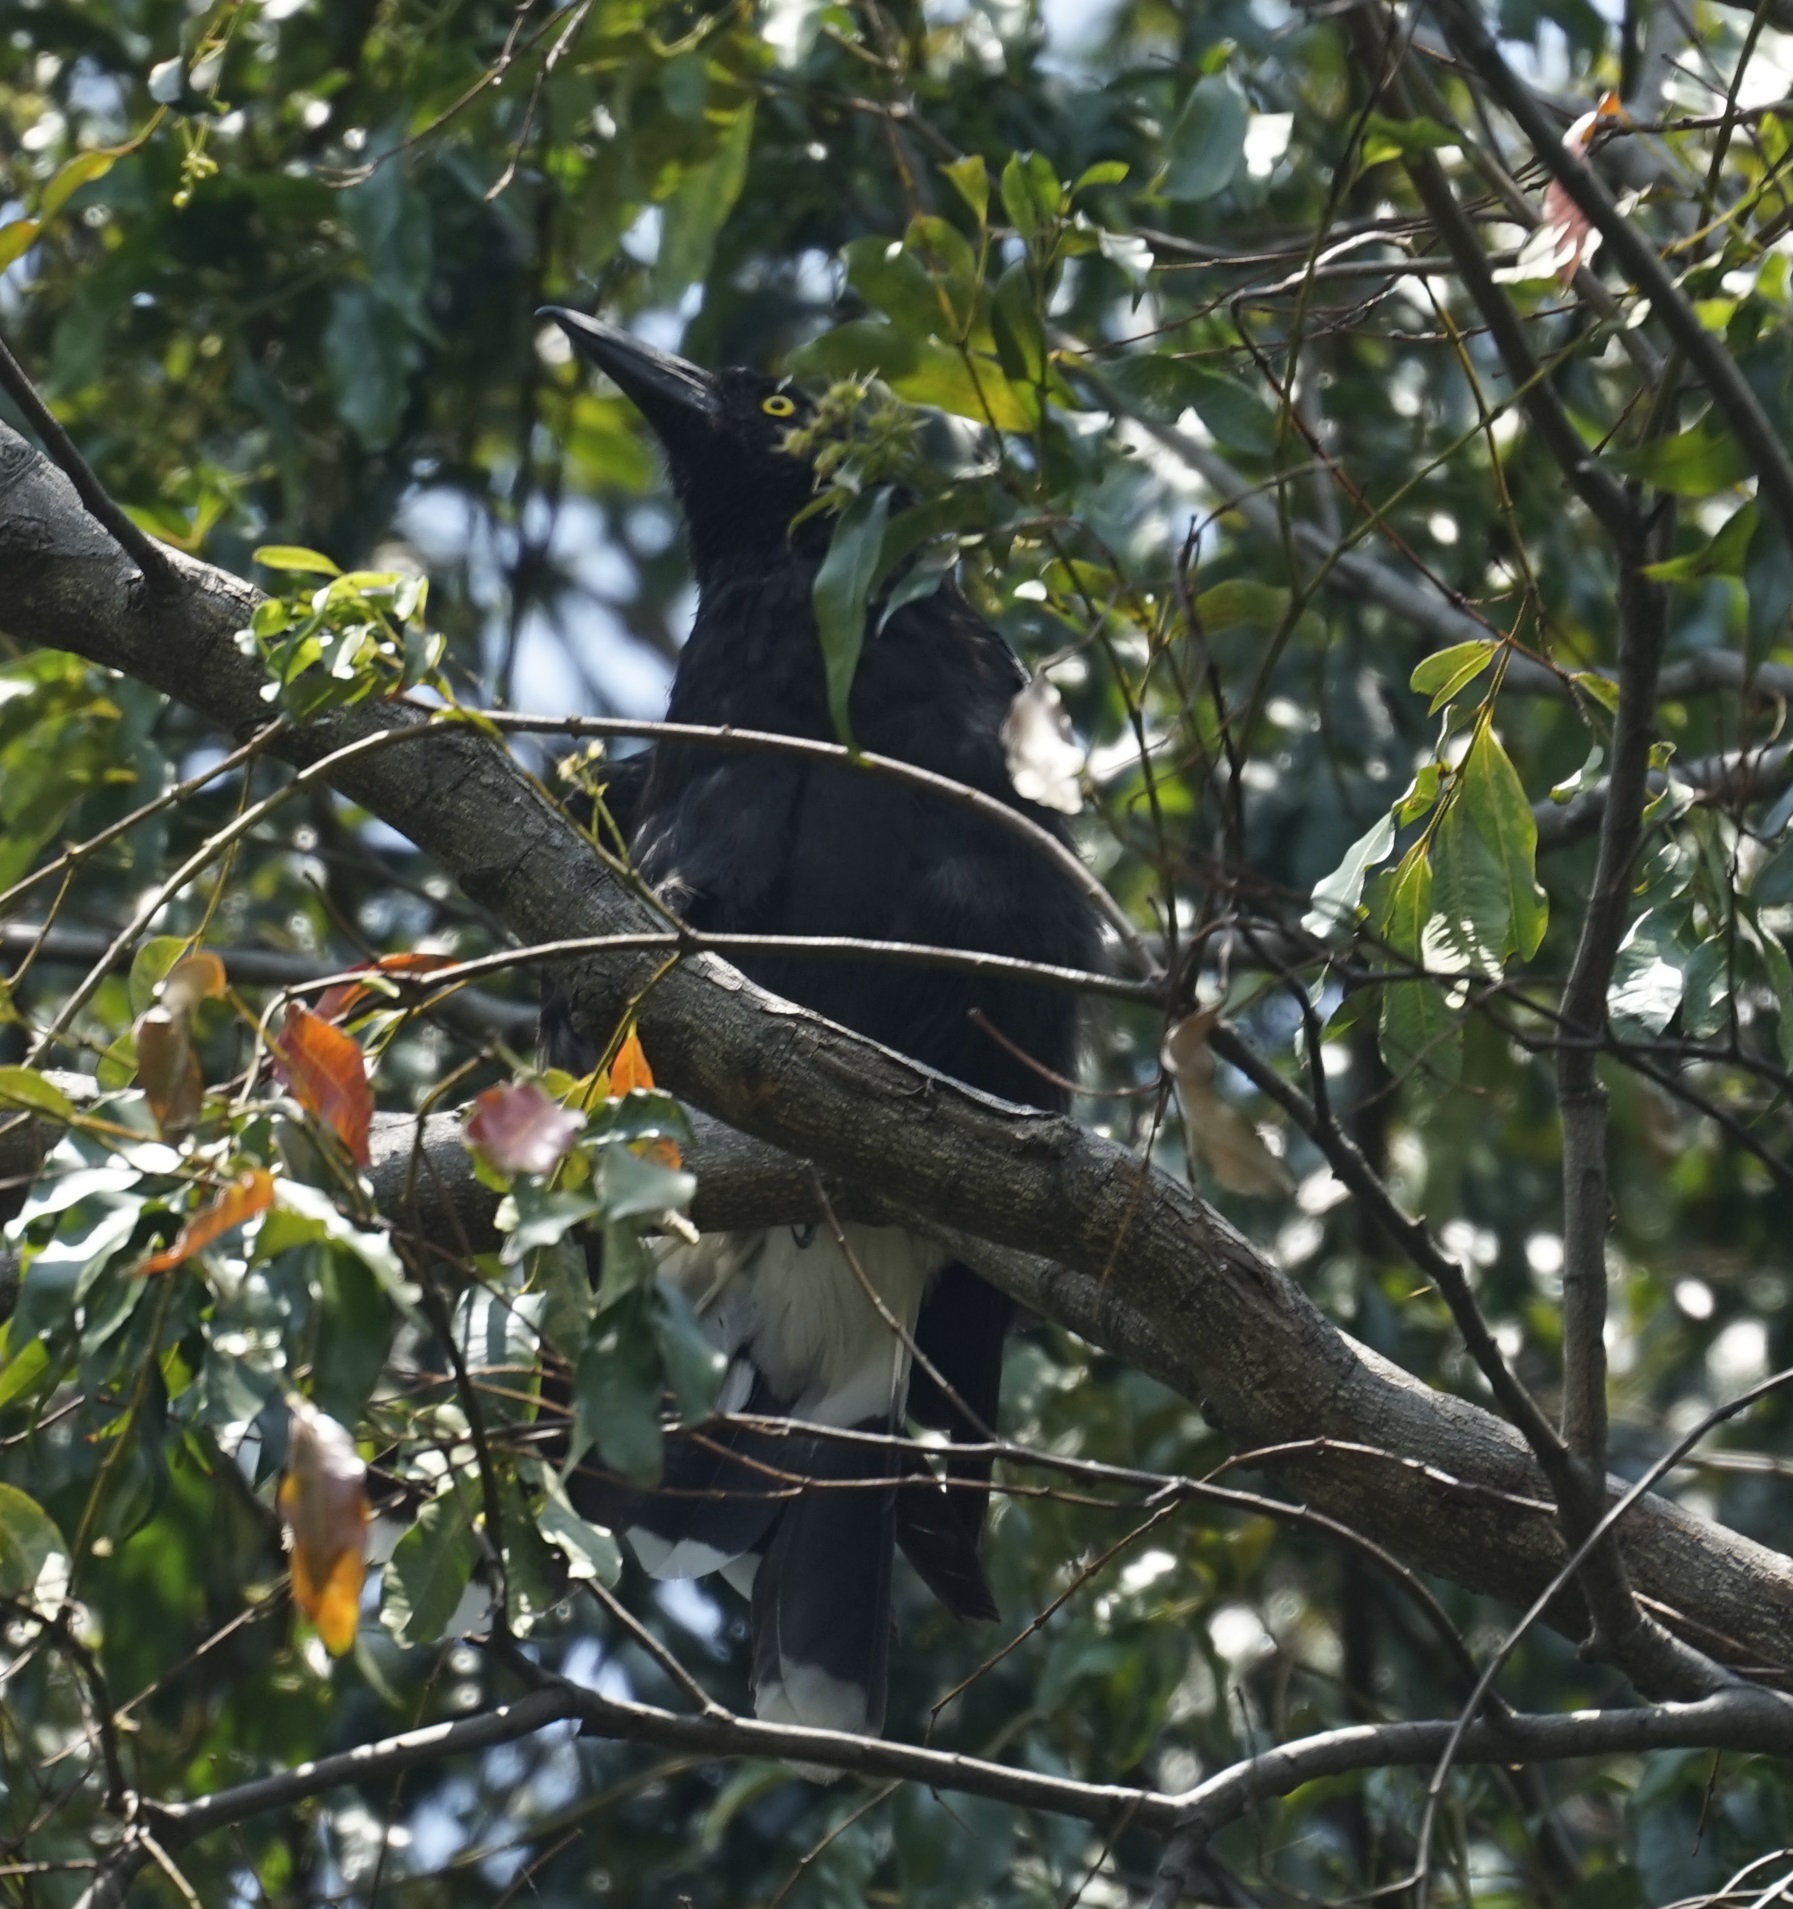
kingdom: Animalia
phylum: Chordata
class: Aves
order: Passeriformes
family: Cracticidae
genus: Strepera
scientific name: Strepera graculina
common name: Pied currawong
